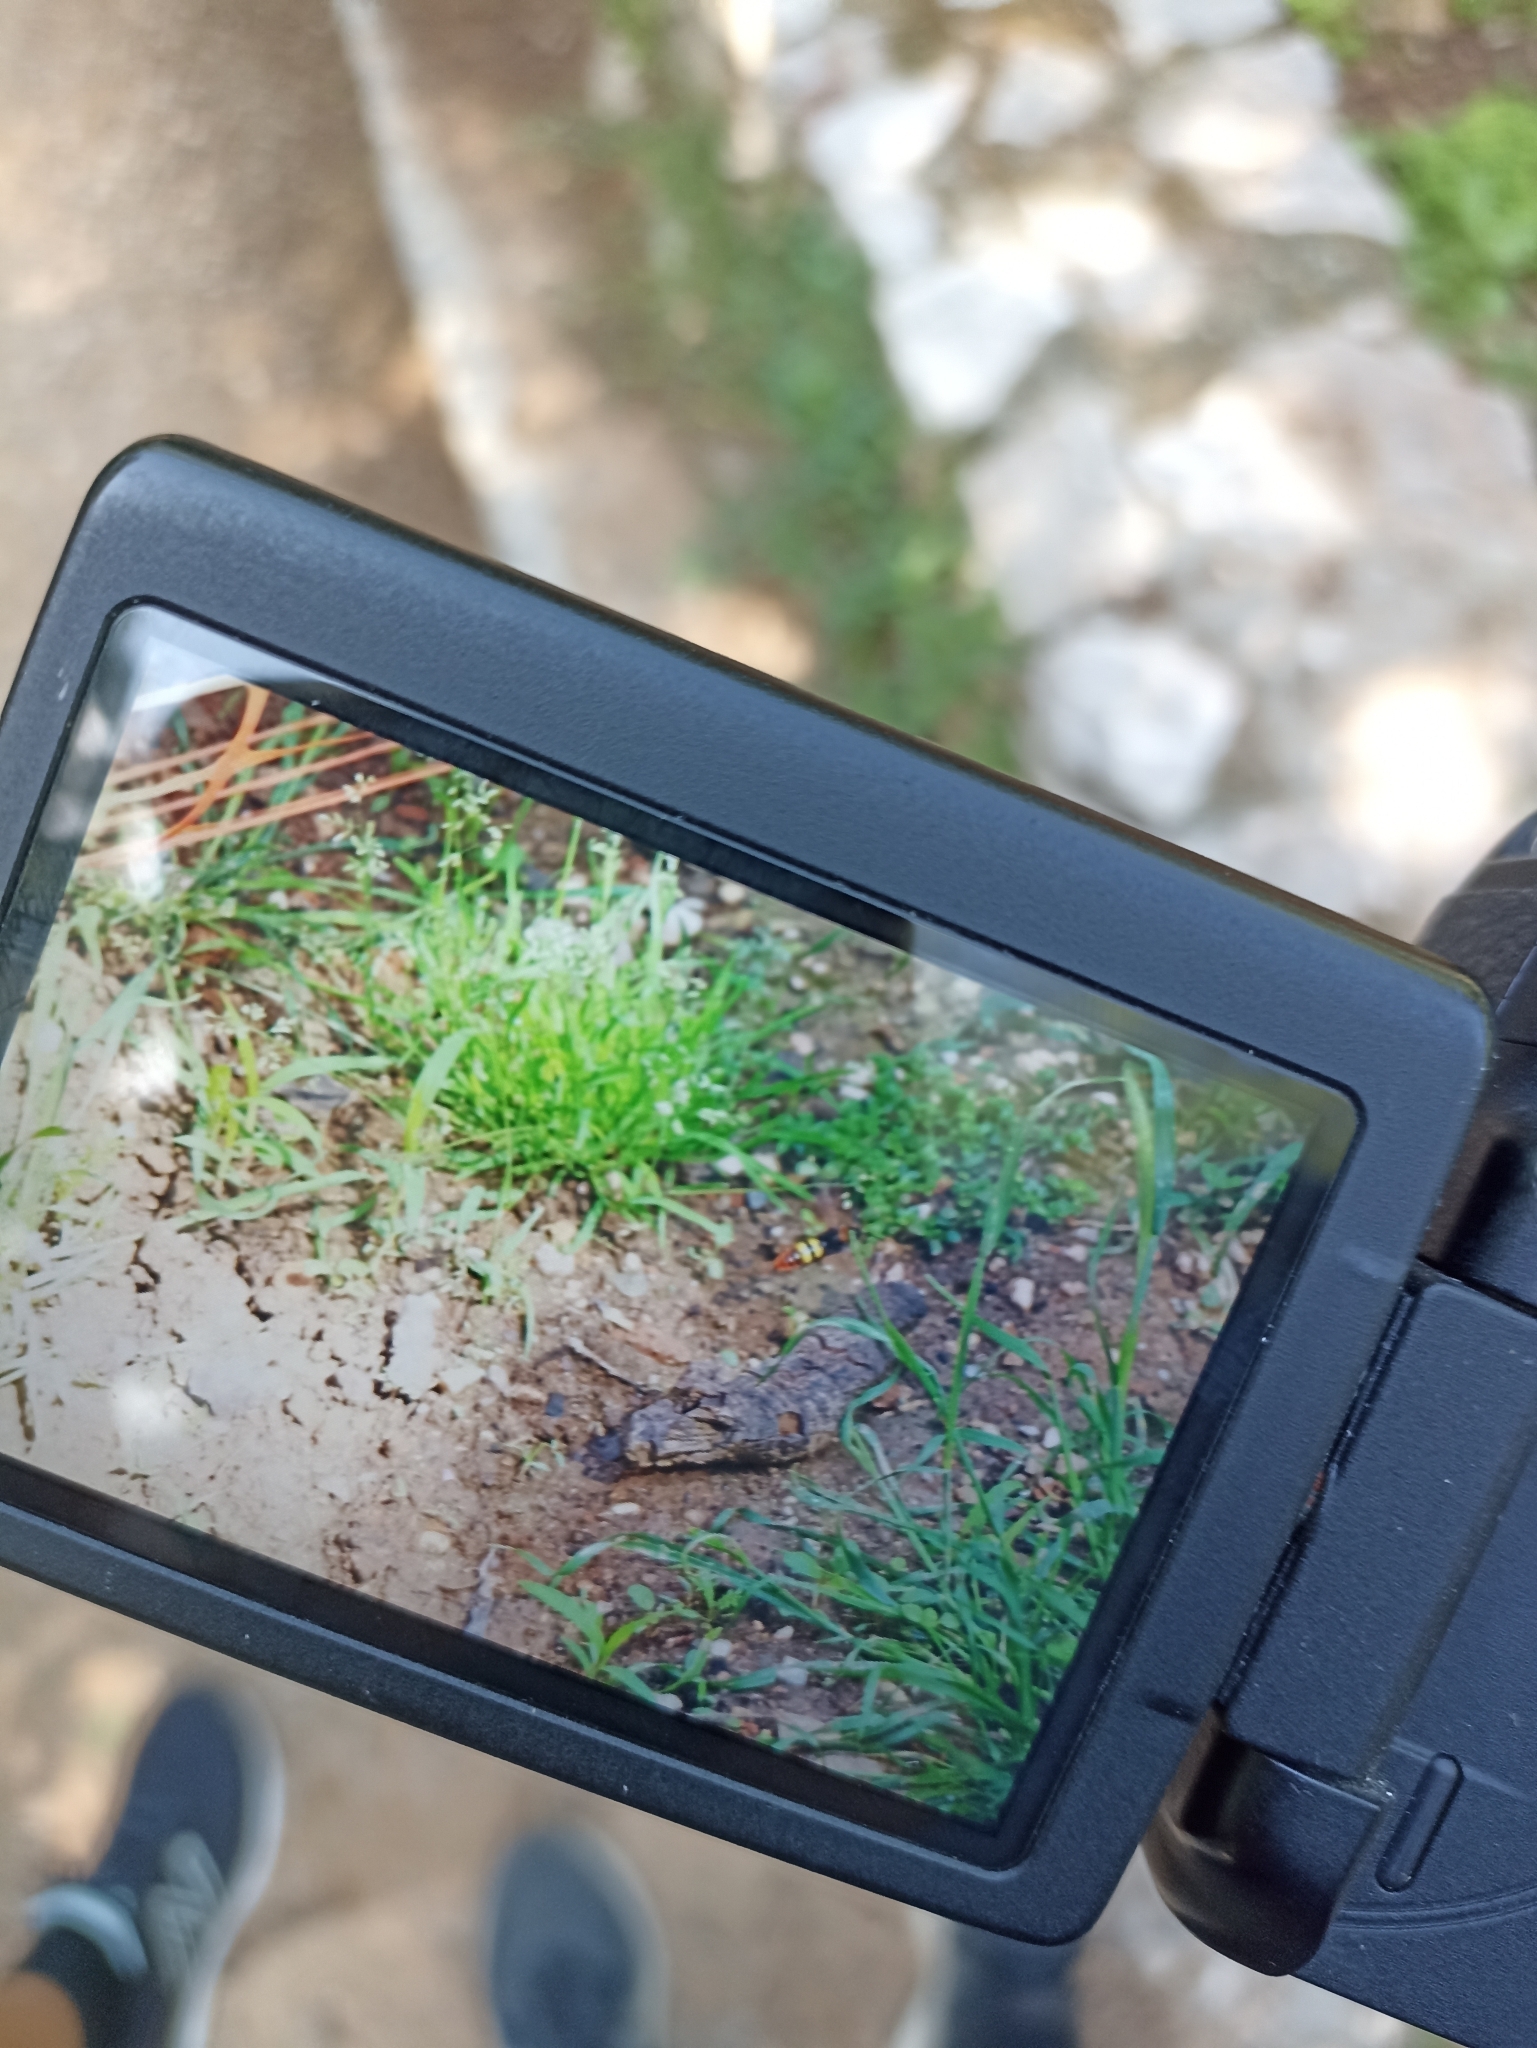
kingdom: Animalia
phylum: Arthropoda
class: Insecta
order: Hymenoptera
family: Scoliidae
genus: Megascolia
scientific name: Megascolia maculata
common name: Mammoth wasp
